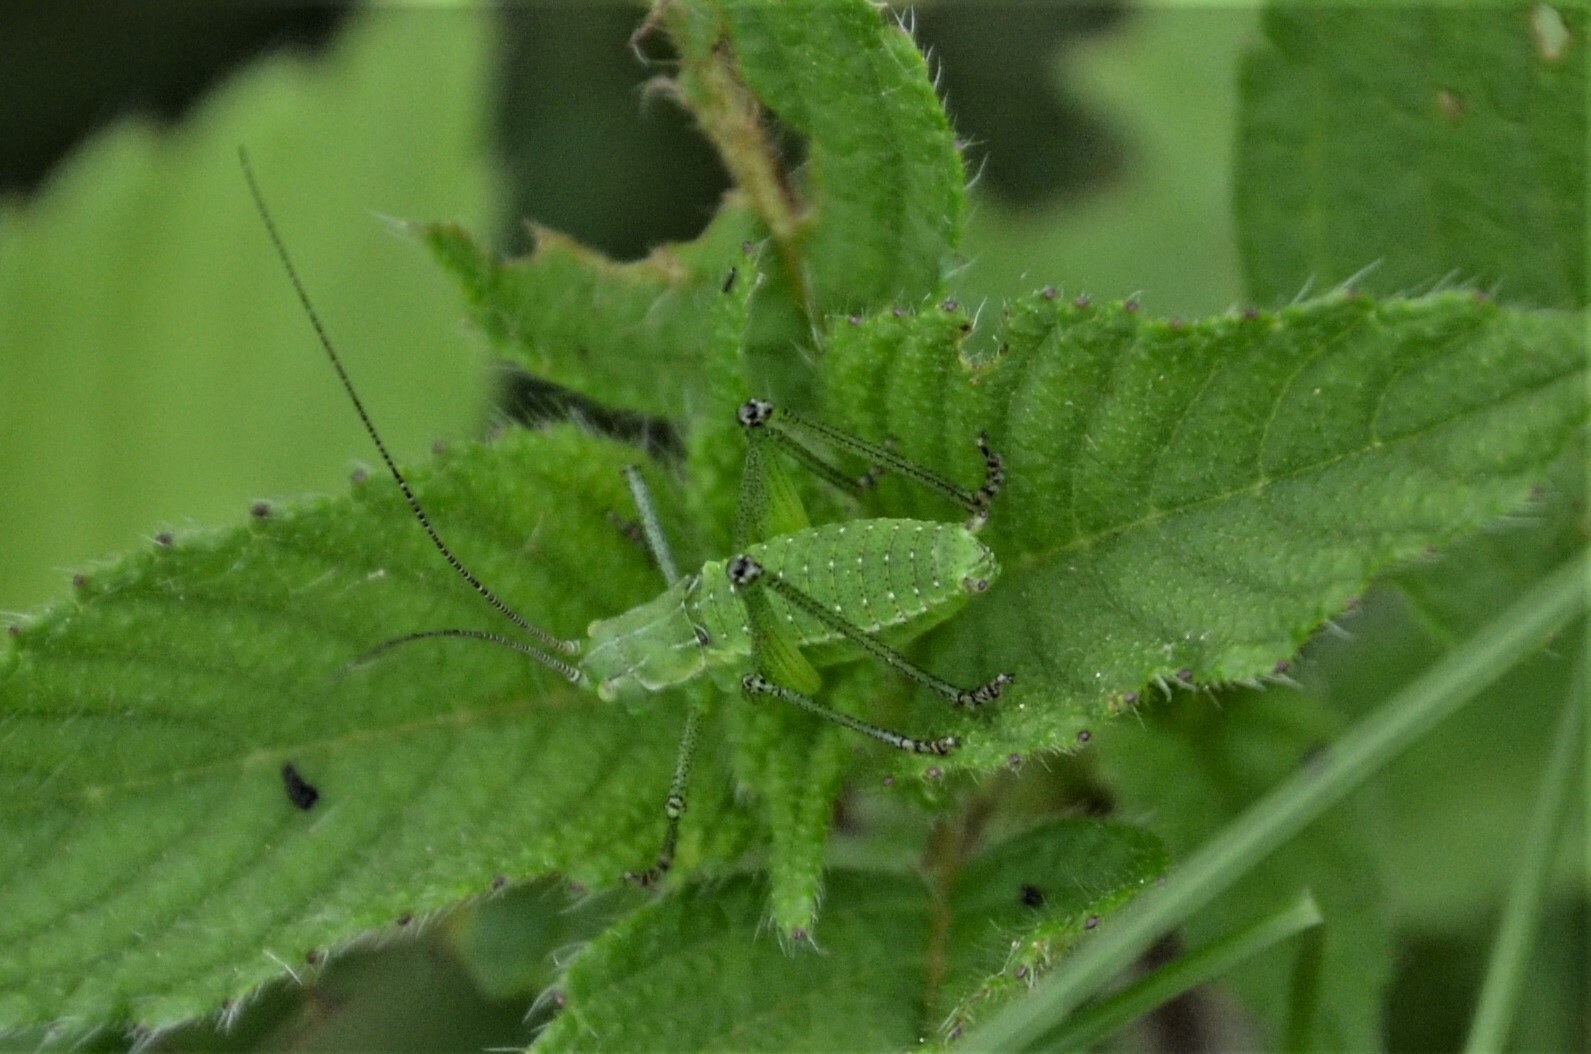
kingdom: Animalia
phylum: Arthropoda
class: Insecta
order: Orthoptera
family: Tettigoniidae
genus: Leptophyes
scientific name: Leptophyes boscii
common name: Balkan speckled bush-cricket
